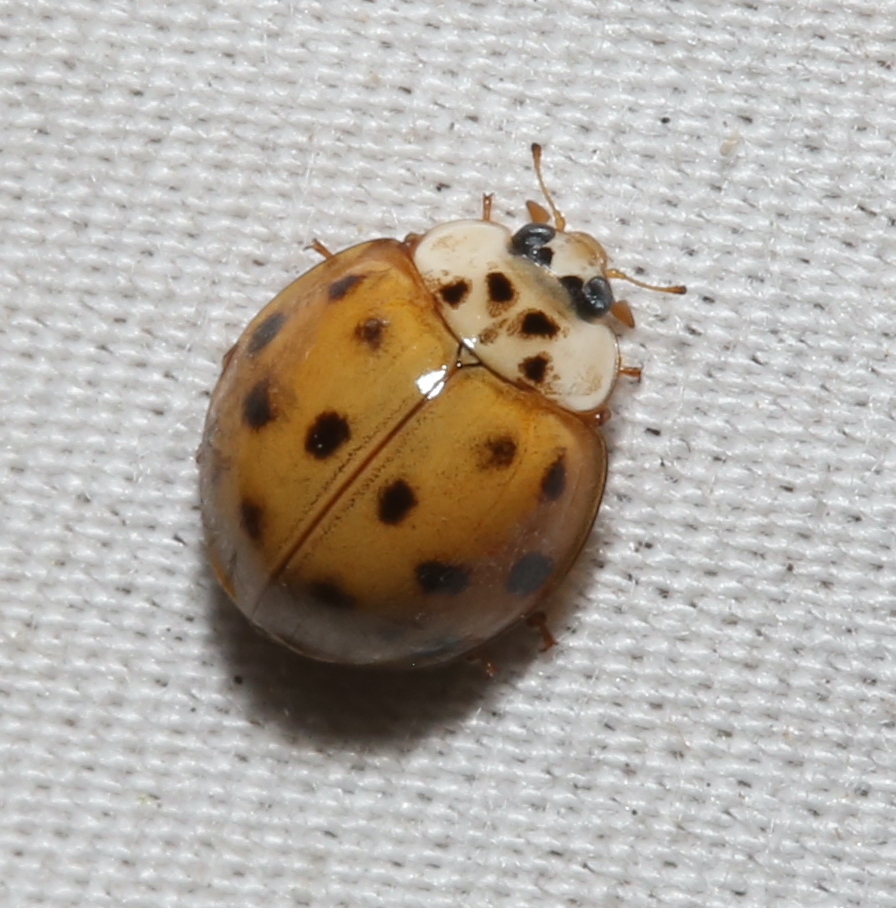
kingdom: Animalia
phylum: Arthropoda
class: Insecta
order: Coleoptera
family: Coccinellidae
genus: Harmonia
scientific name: Harmonia axyridis
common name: Harlequin ladybird
